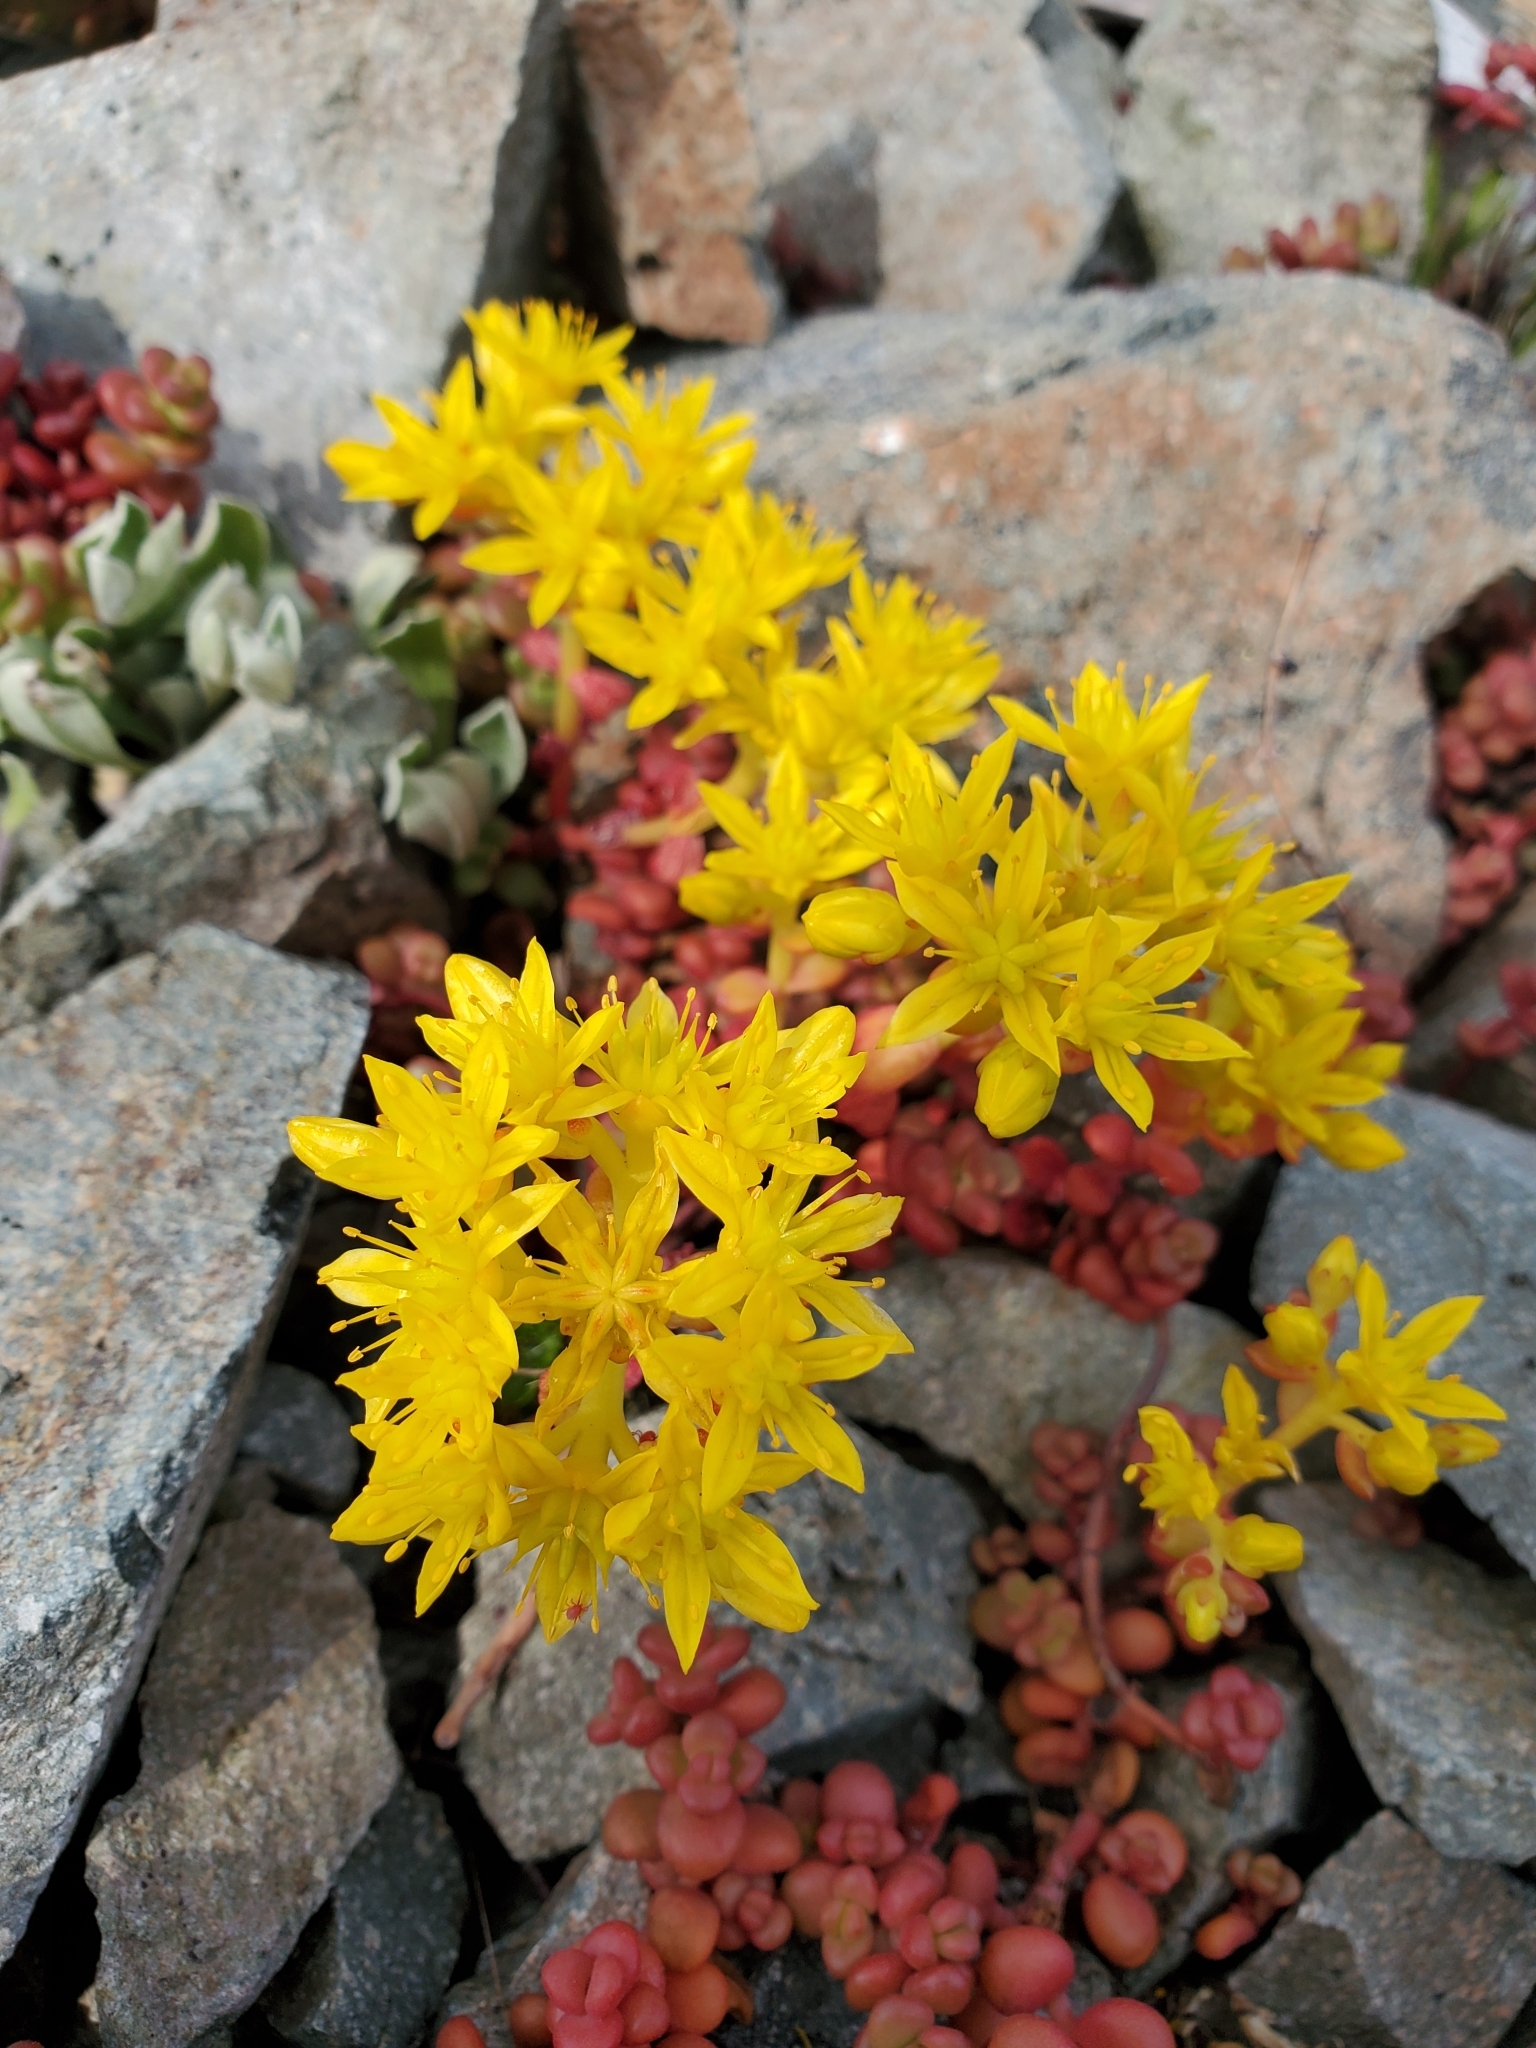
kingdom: Plantae
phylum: Tracheophyta
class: Magnoliopsida
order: Saxifragales
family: Crassulaceae
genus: Sedum
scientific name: Sedum divergens
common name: Cascade stonecrop
